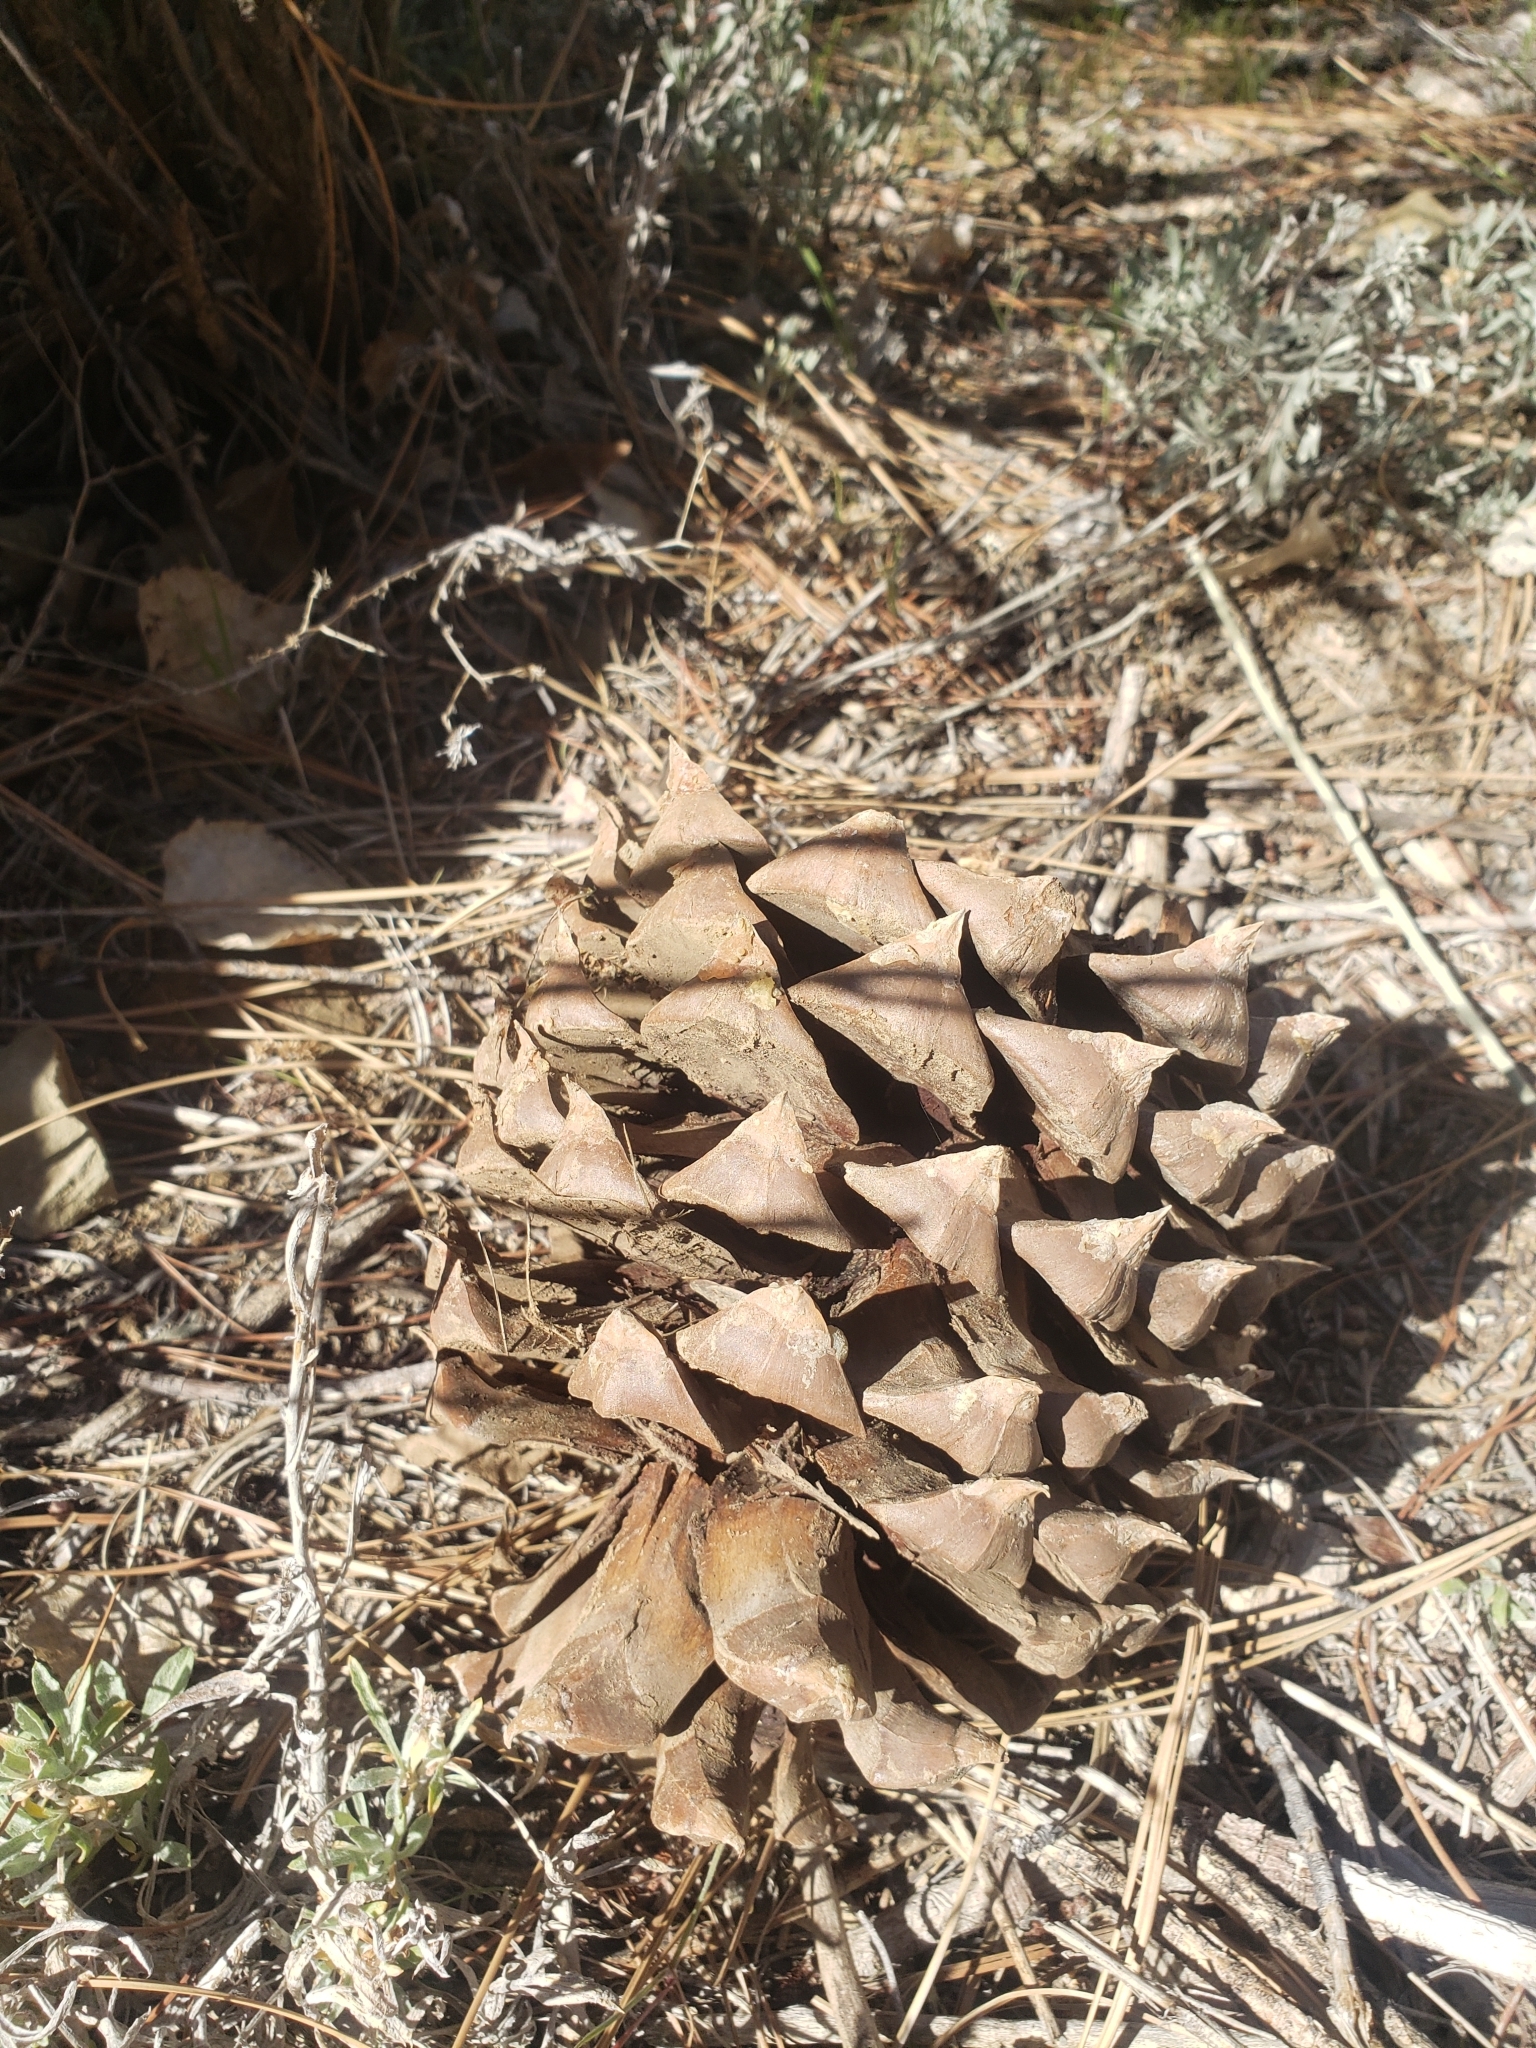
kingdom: Plantae
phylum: Tracheophyta
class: Pinopsida
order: Pinales
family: Pinaceae
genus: Pinus
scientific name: Pinus sabiniana
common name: Bull pine
